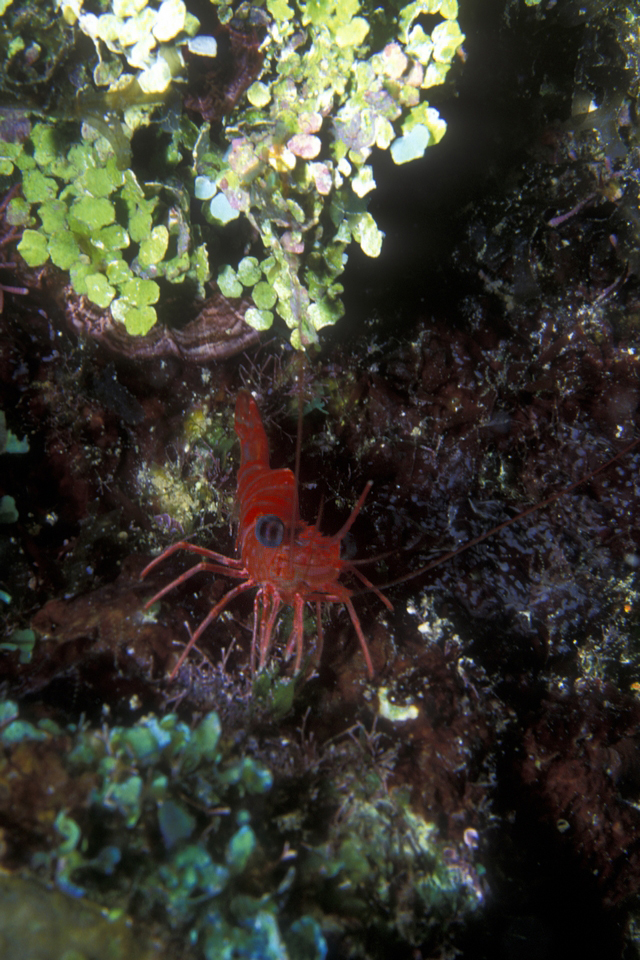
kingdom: Animalia
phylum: Arthropoda
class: Malacostraca
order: Decapoda
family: Rhynchocinetidae
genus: Cinetorhynchus
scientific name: Cinetorhynchus manningi
